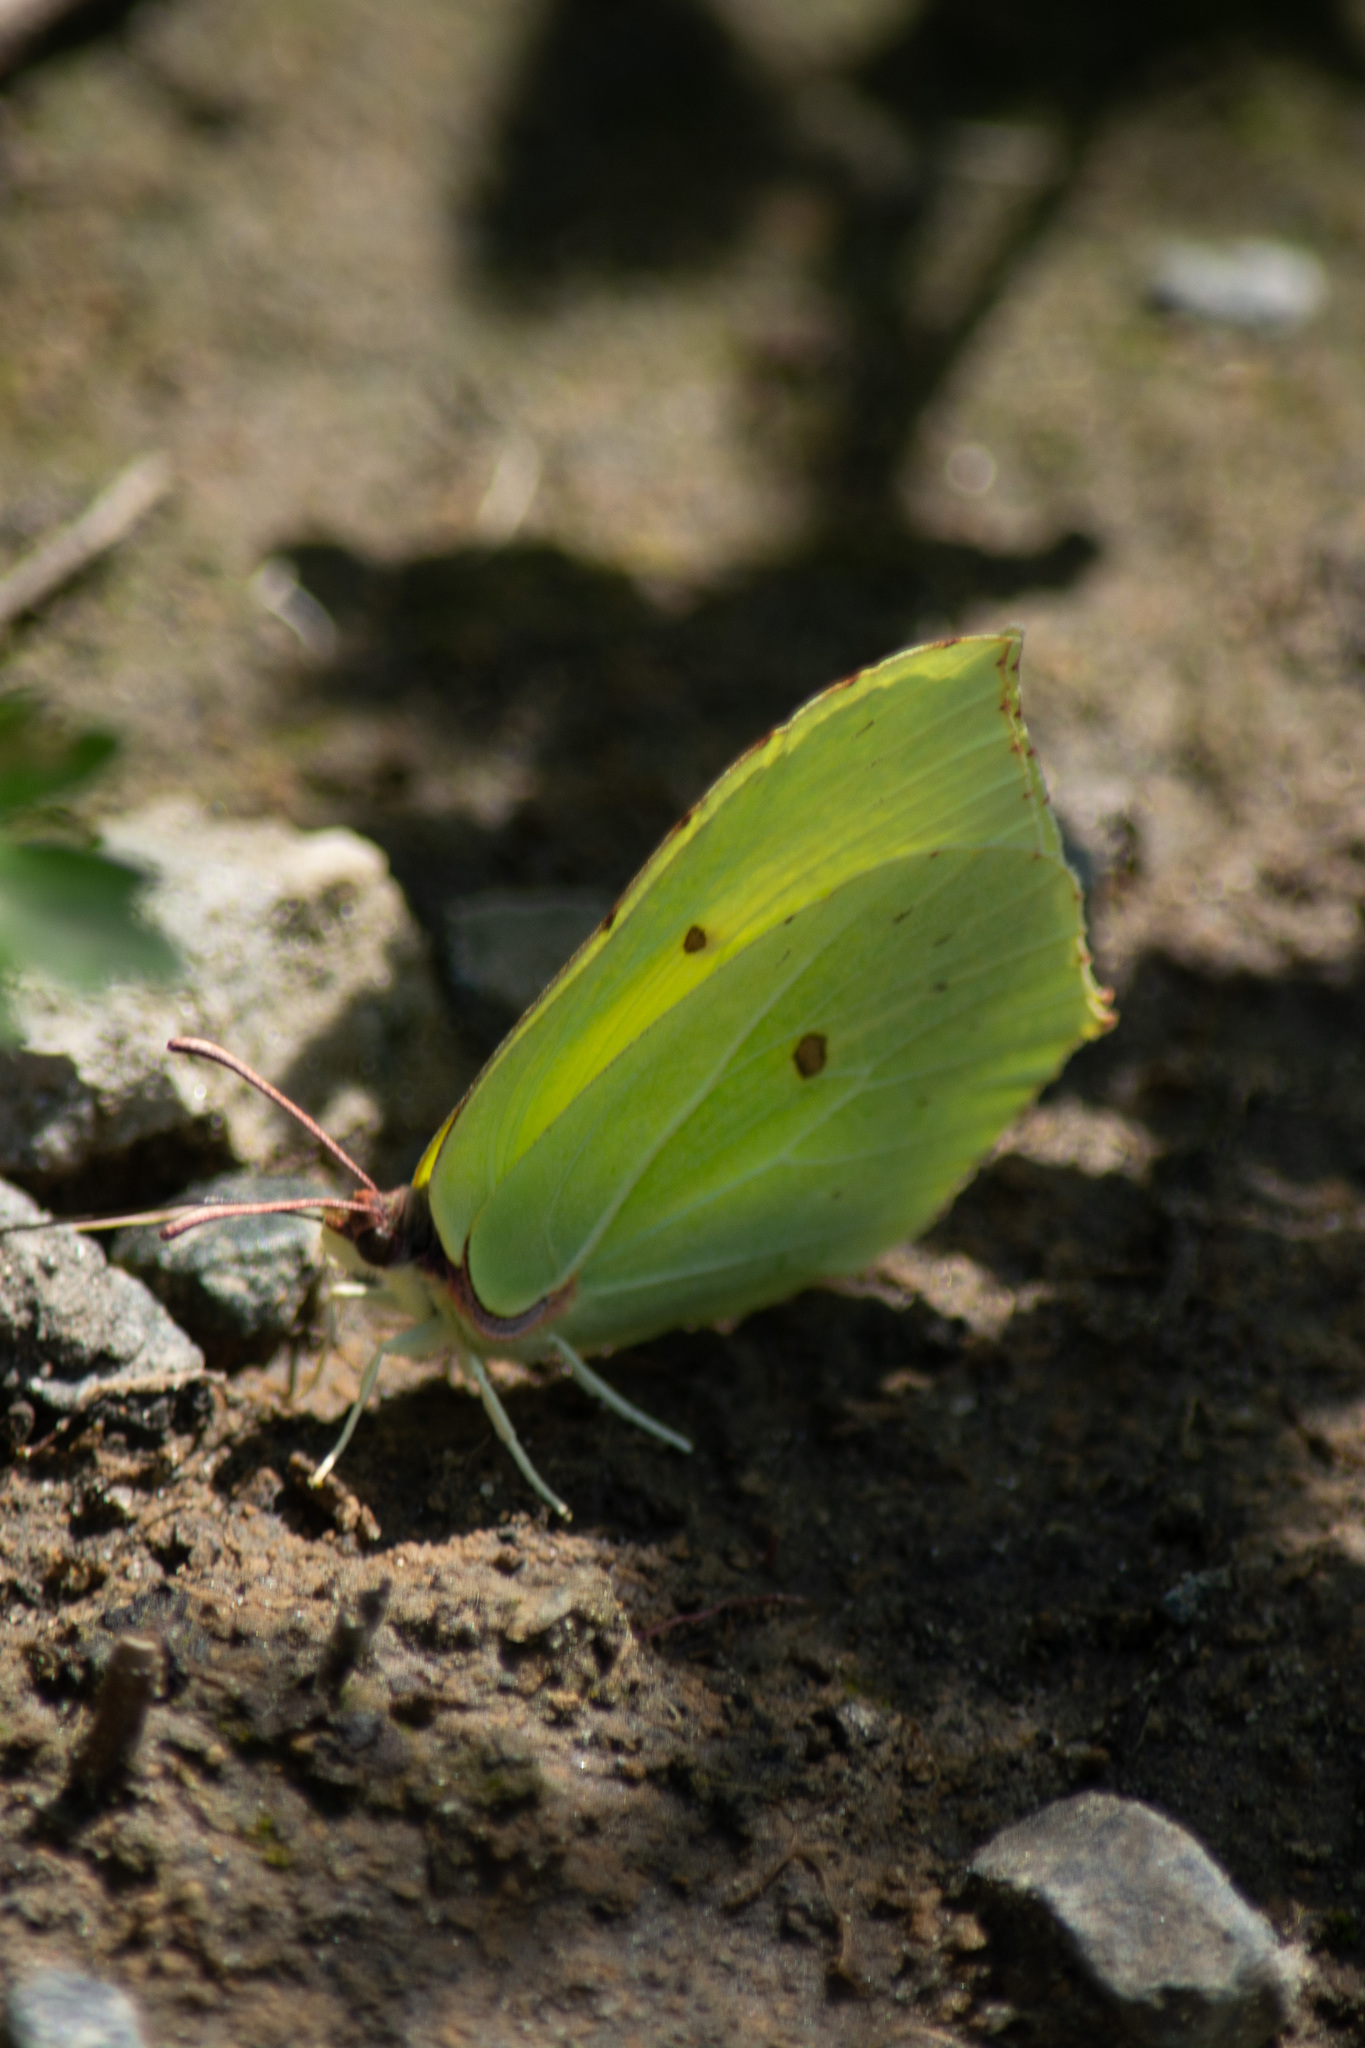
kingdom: Animalia
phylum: Arthropoda
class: Insecta
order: Lepidoptera
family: Pieridae
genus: Gonepteryx
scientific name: Gonepteryx rhamni
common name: Brimstone
